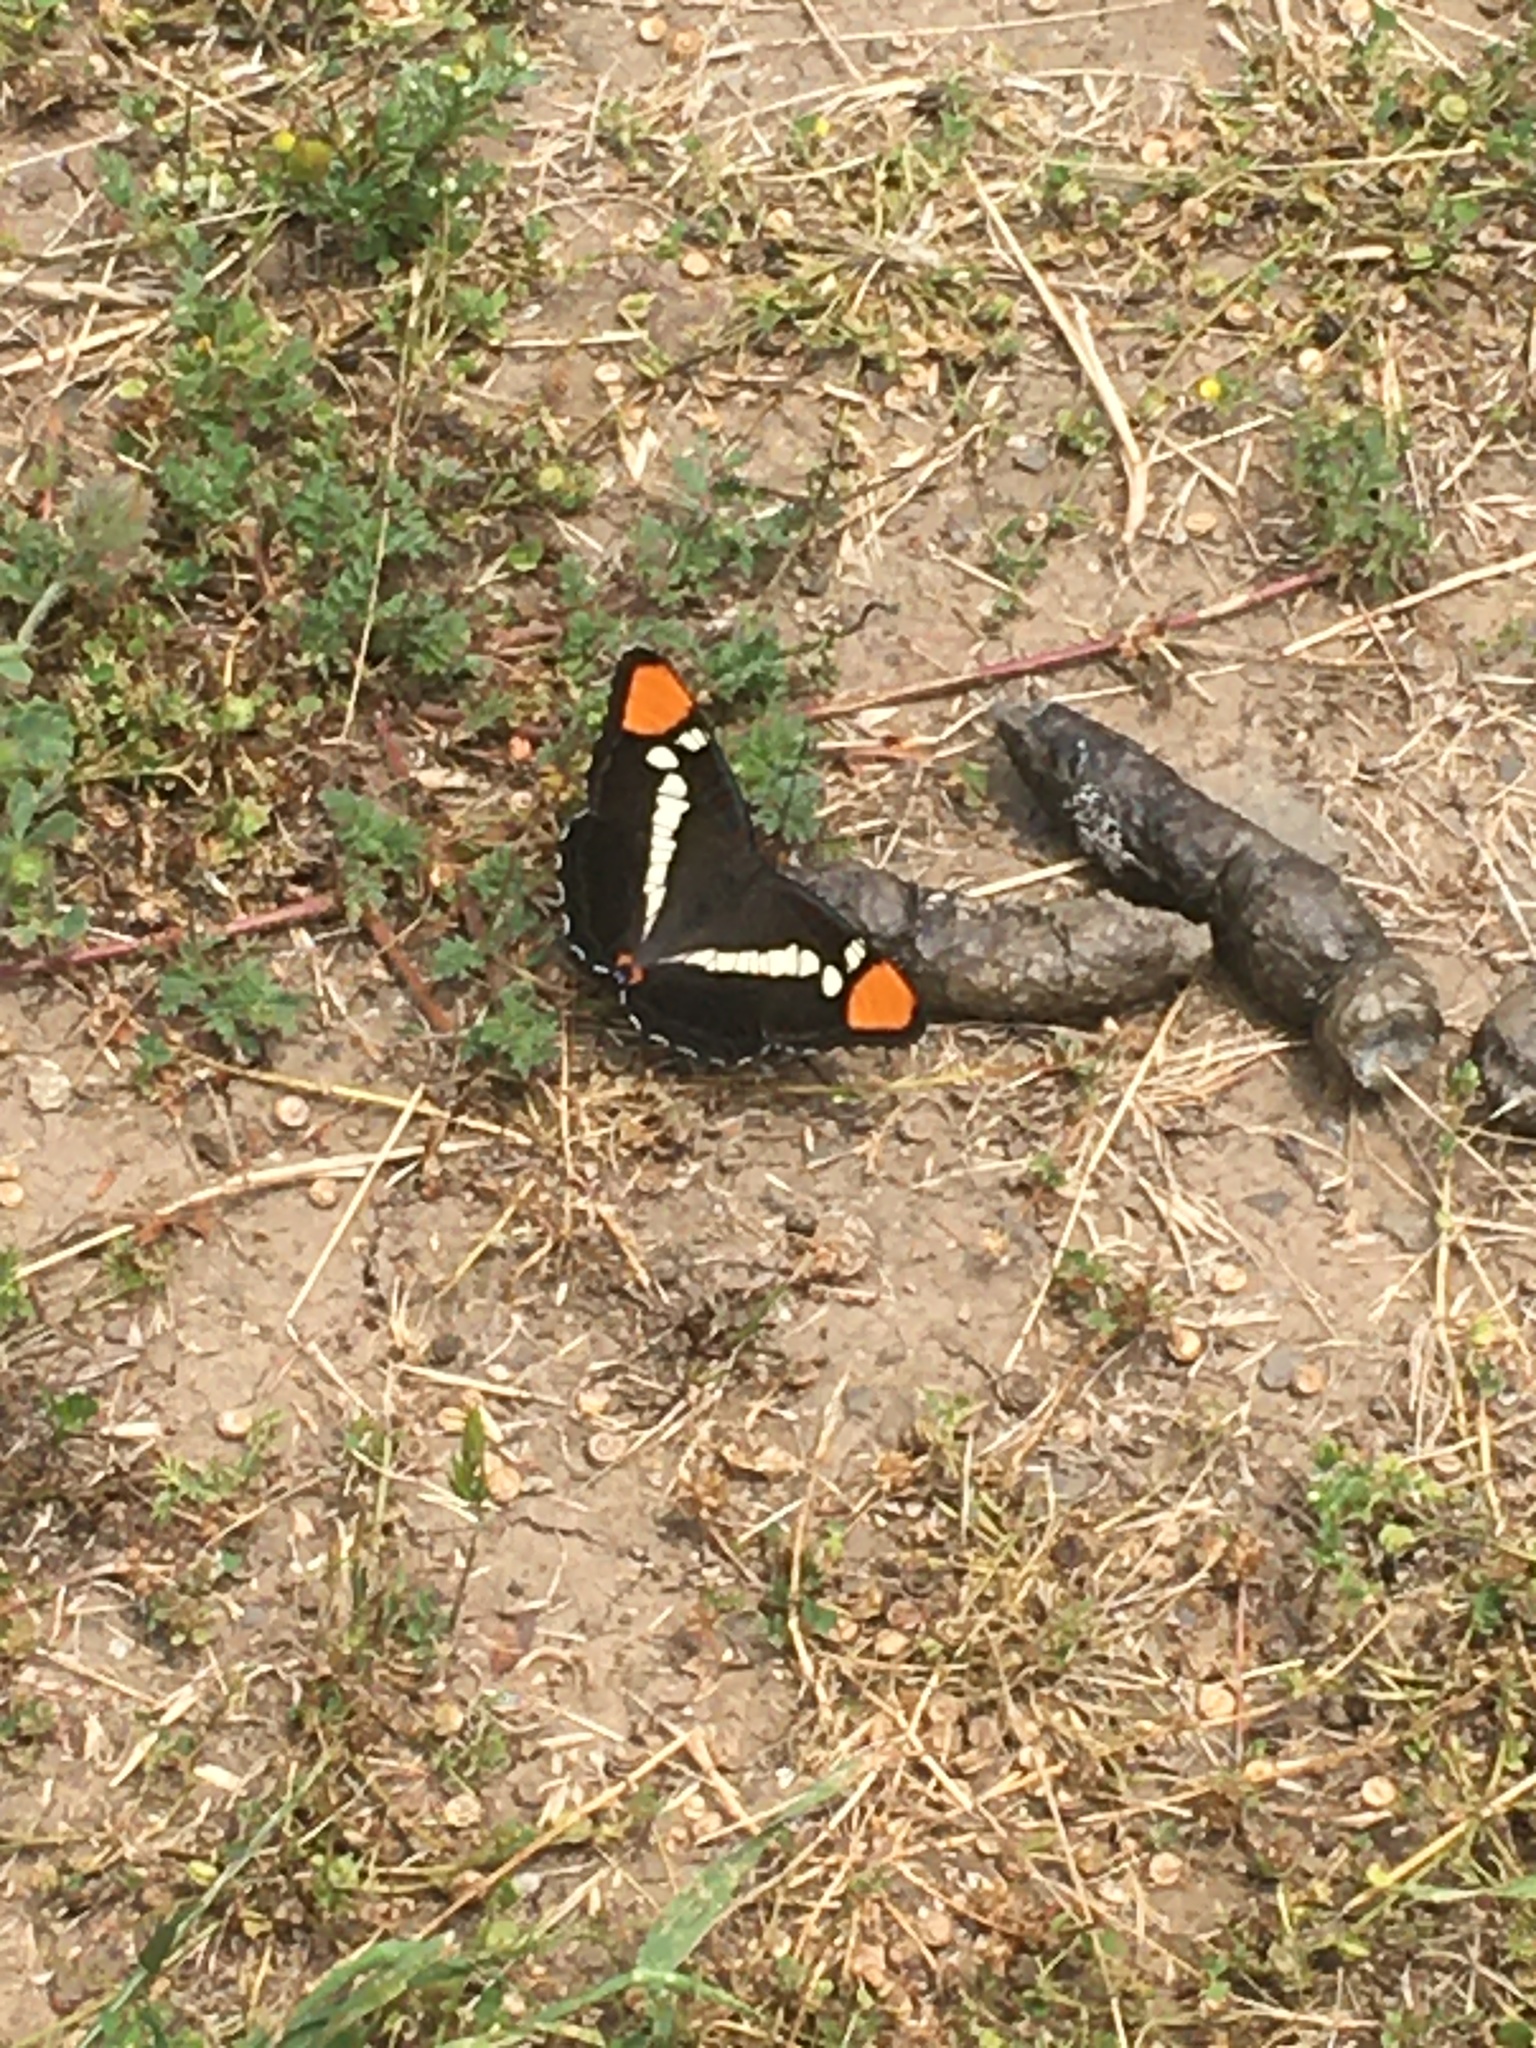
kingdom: Animalia
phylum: Arthropoda
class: Insecta
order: Lepidoptera
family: Nymphalidae
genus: Limenitis
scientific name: Limenitis bredowii
